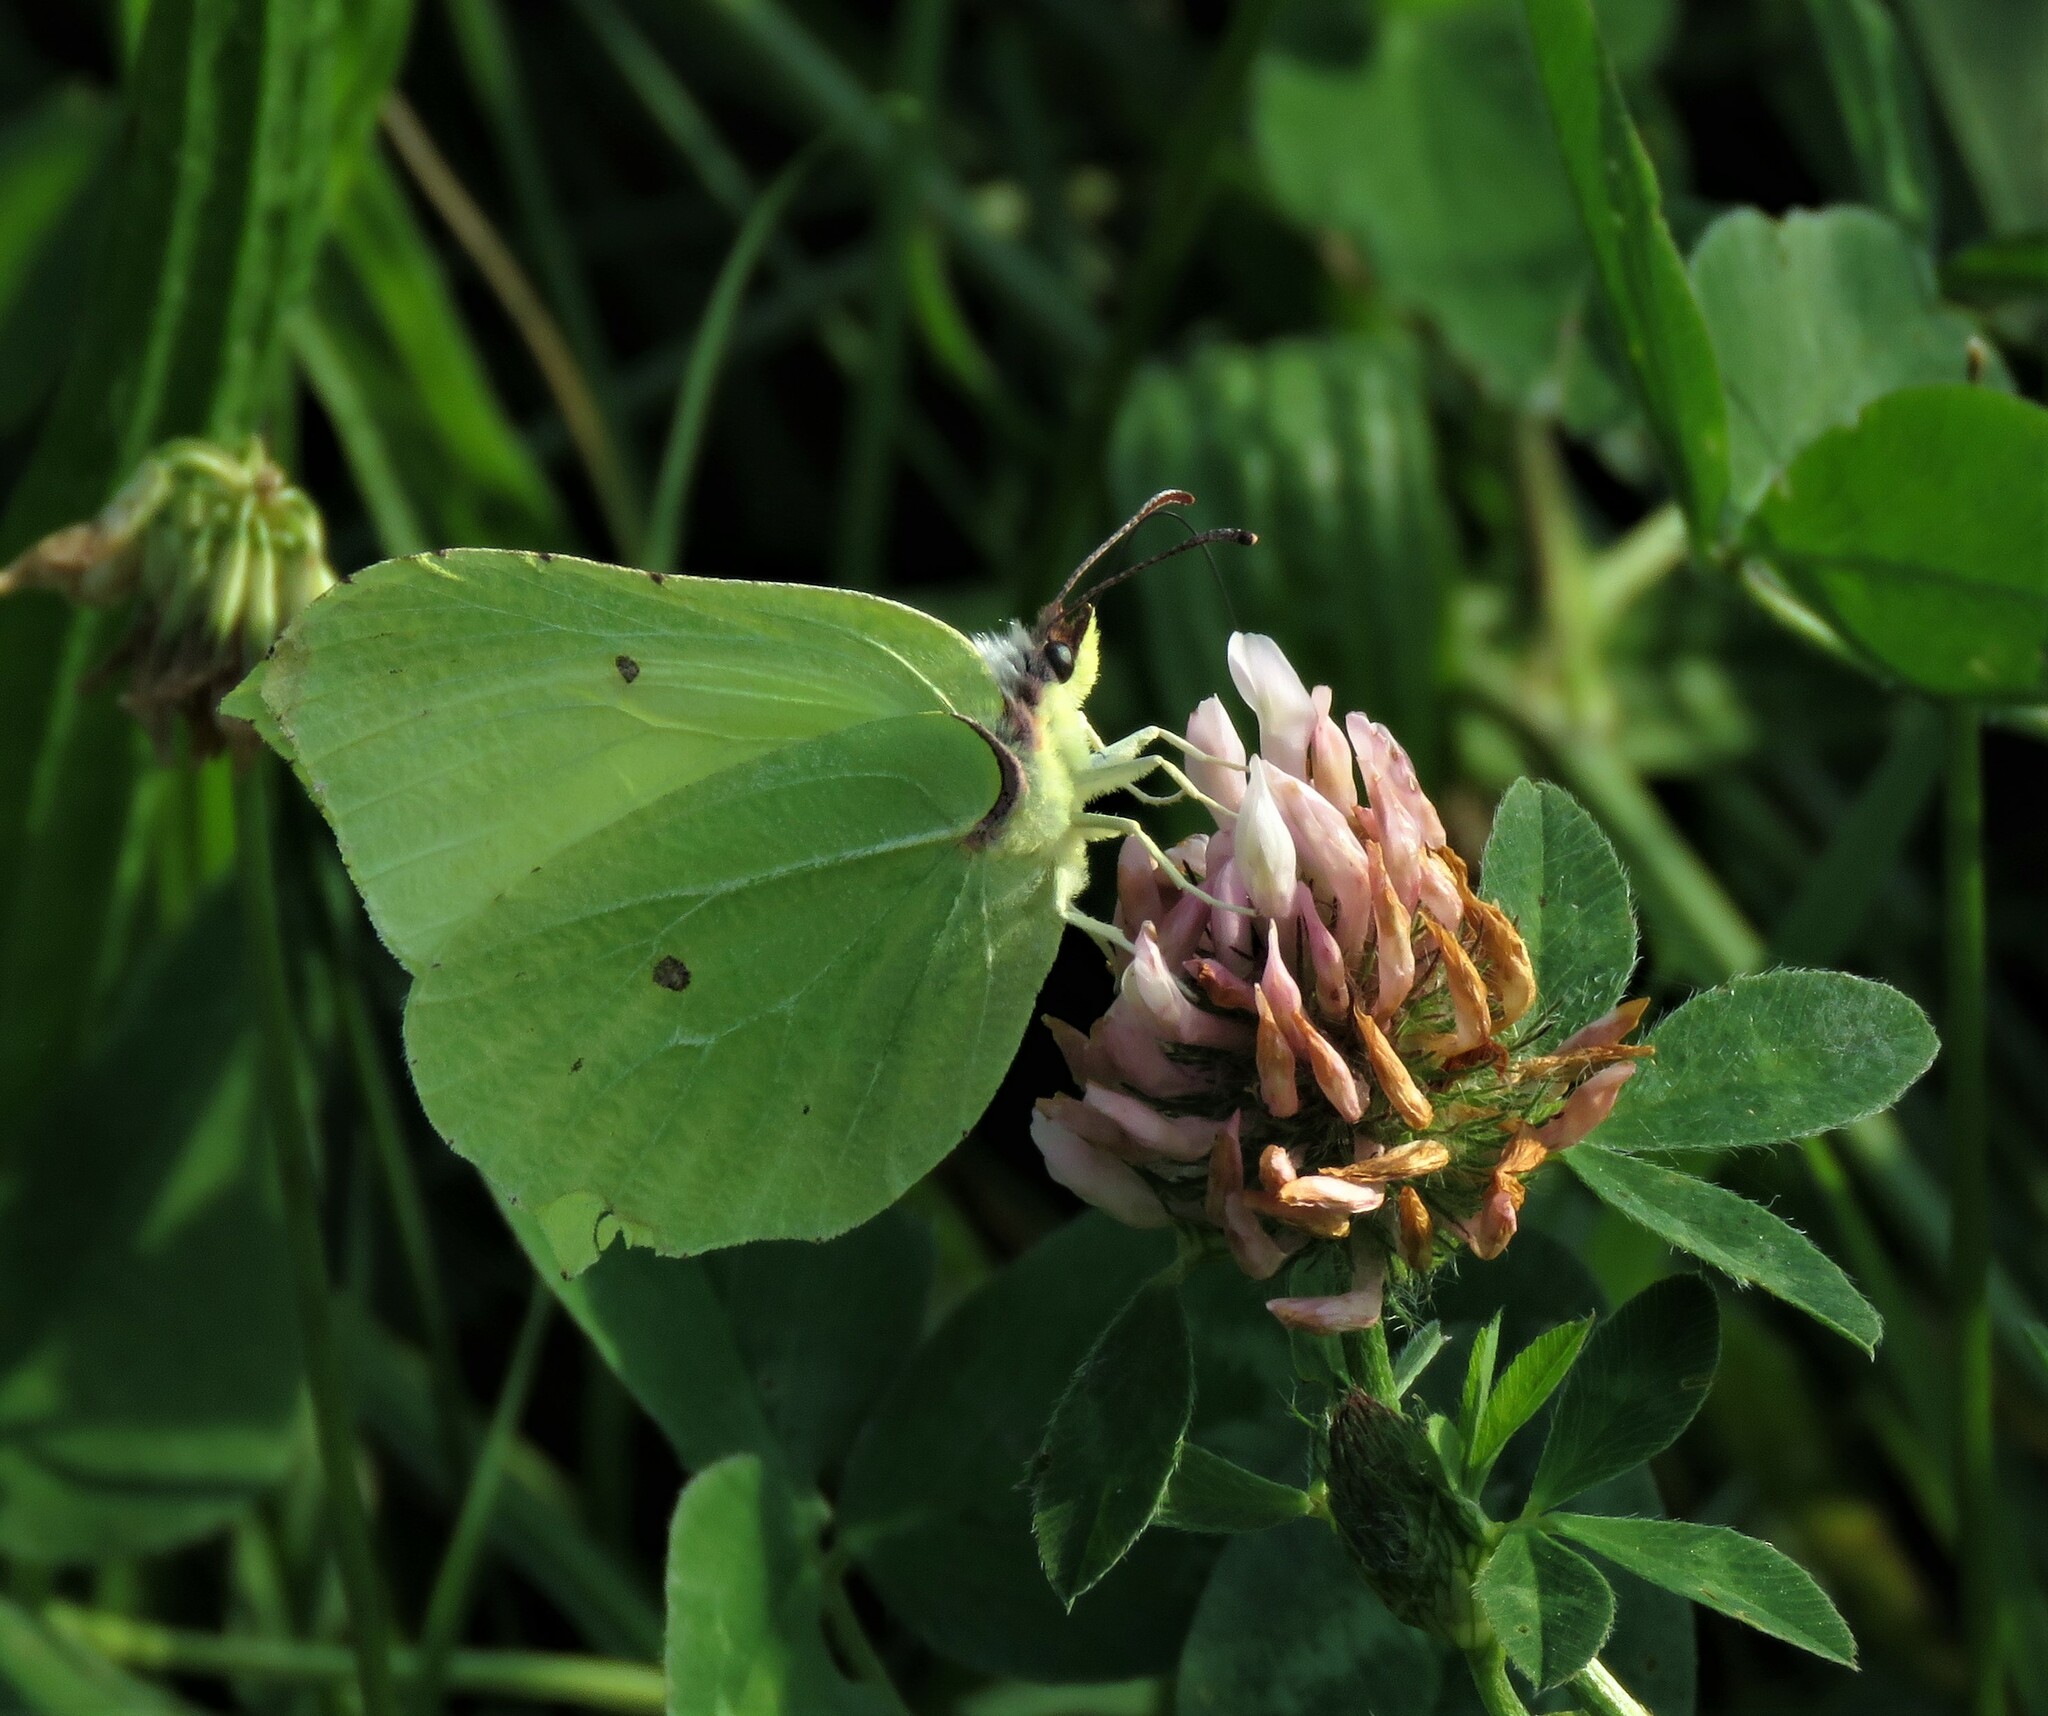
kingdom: Animalia
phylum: Arthropoda
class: Insecta
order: Lepidoptera
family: Pieridae
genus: Gonepteryx
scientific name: Gonepteryx rhamni
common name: Brimstone
